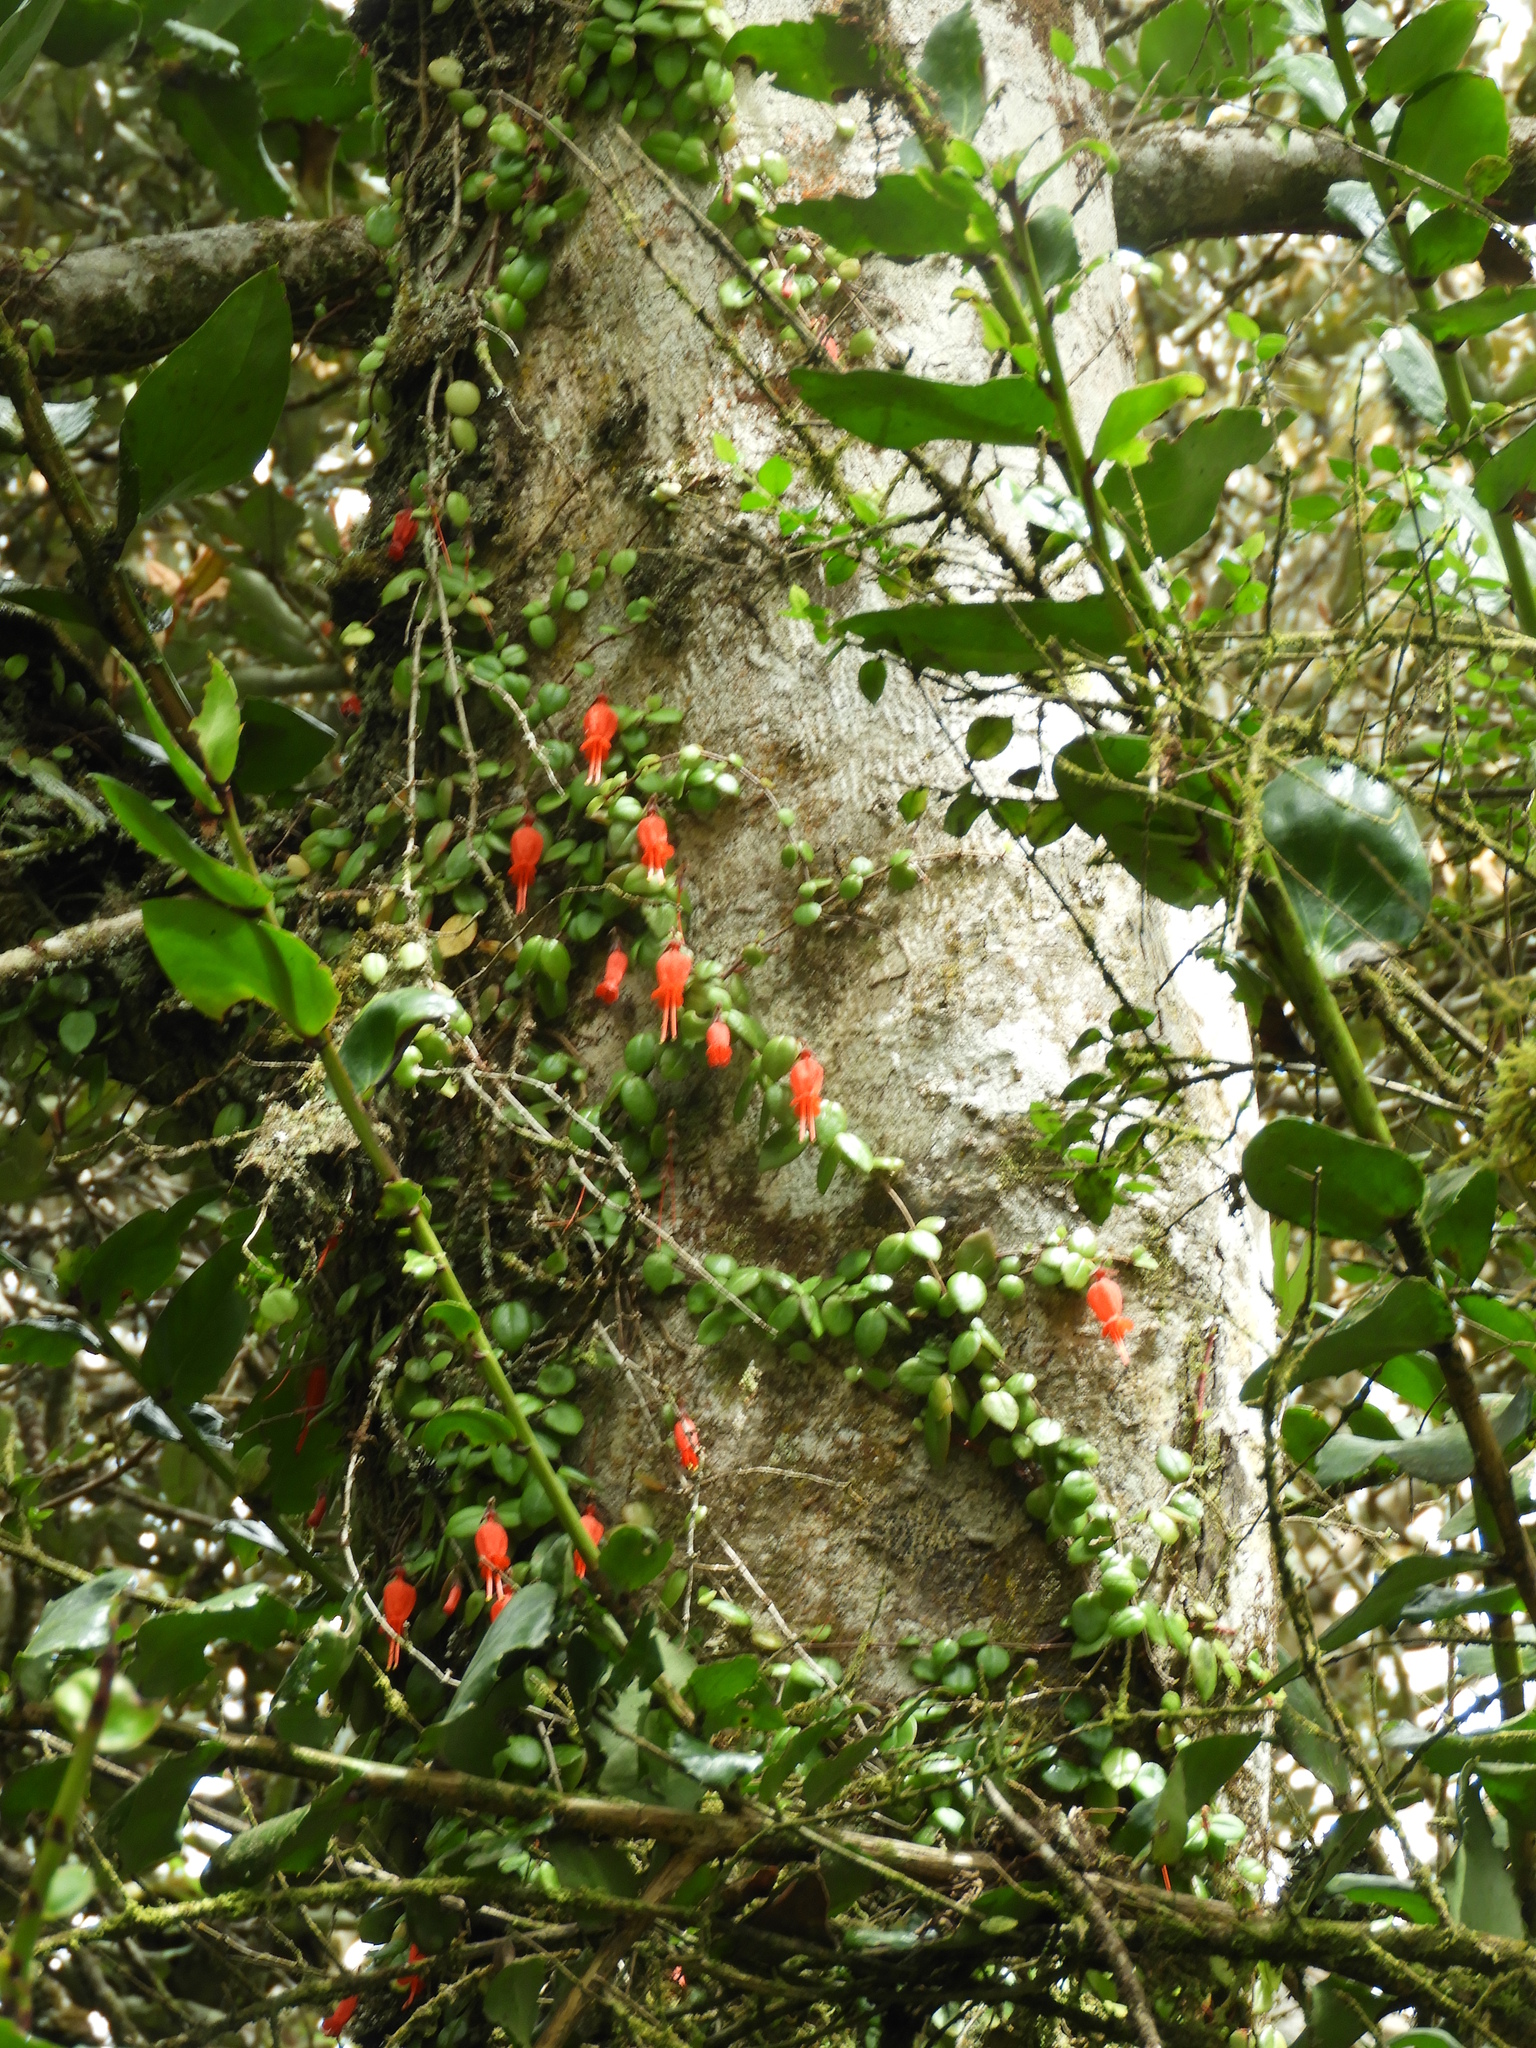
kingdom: Plantae
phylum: Tracheophyta
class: Magnoliopsida
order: Lamiales
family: Gesneriaceae
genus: Sarmienta
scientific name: Sarmienta scandens
